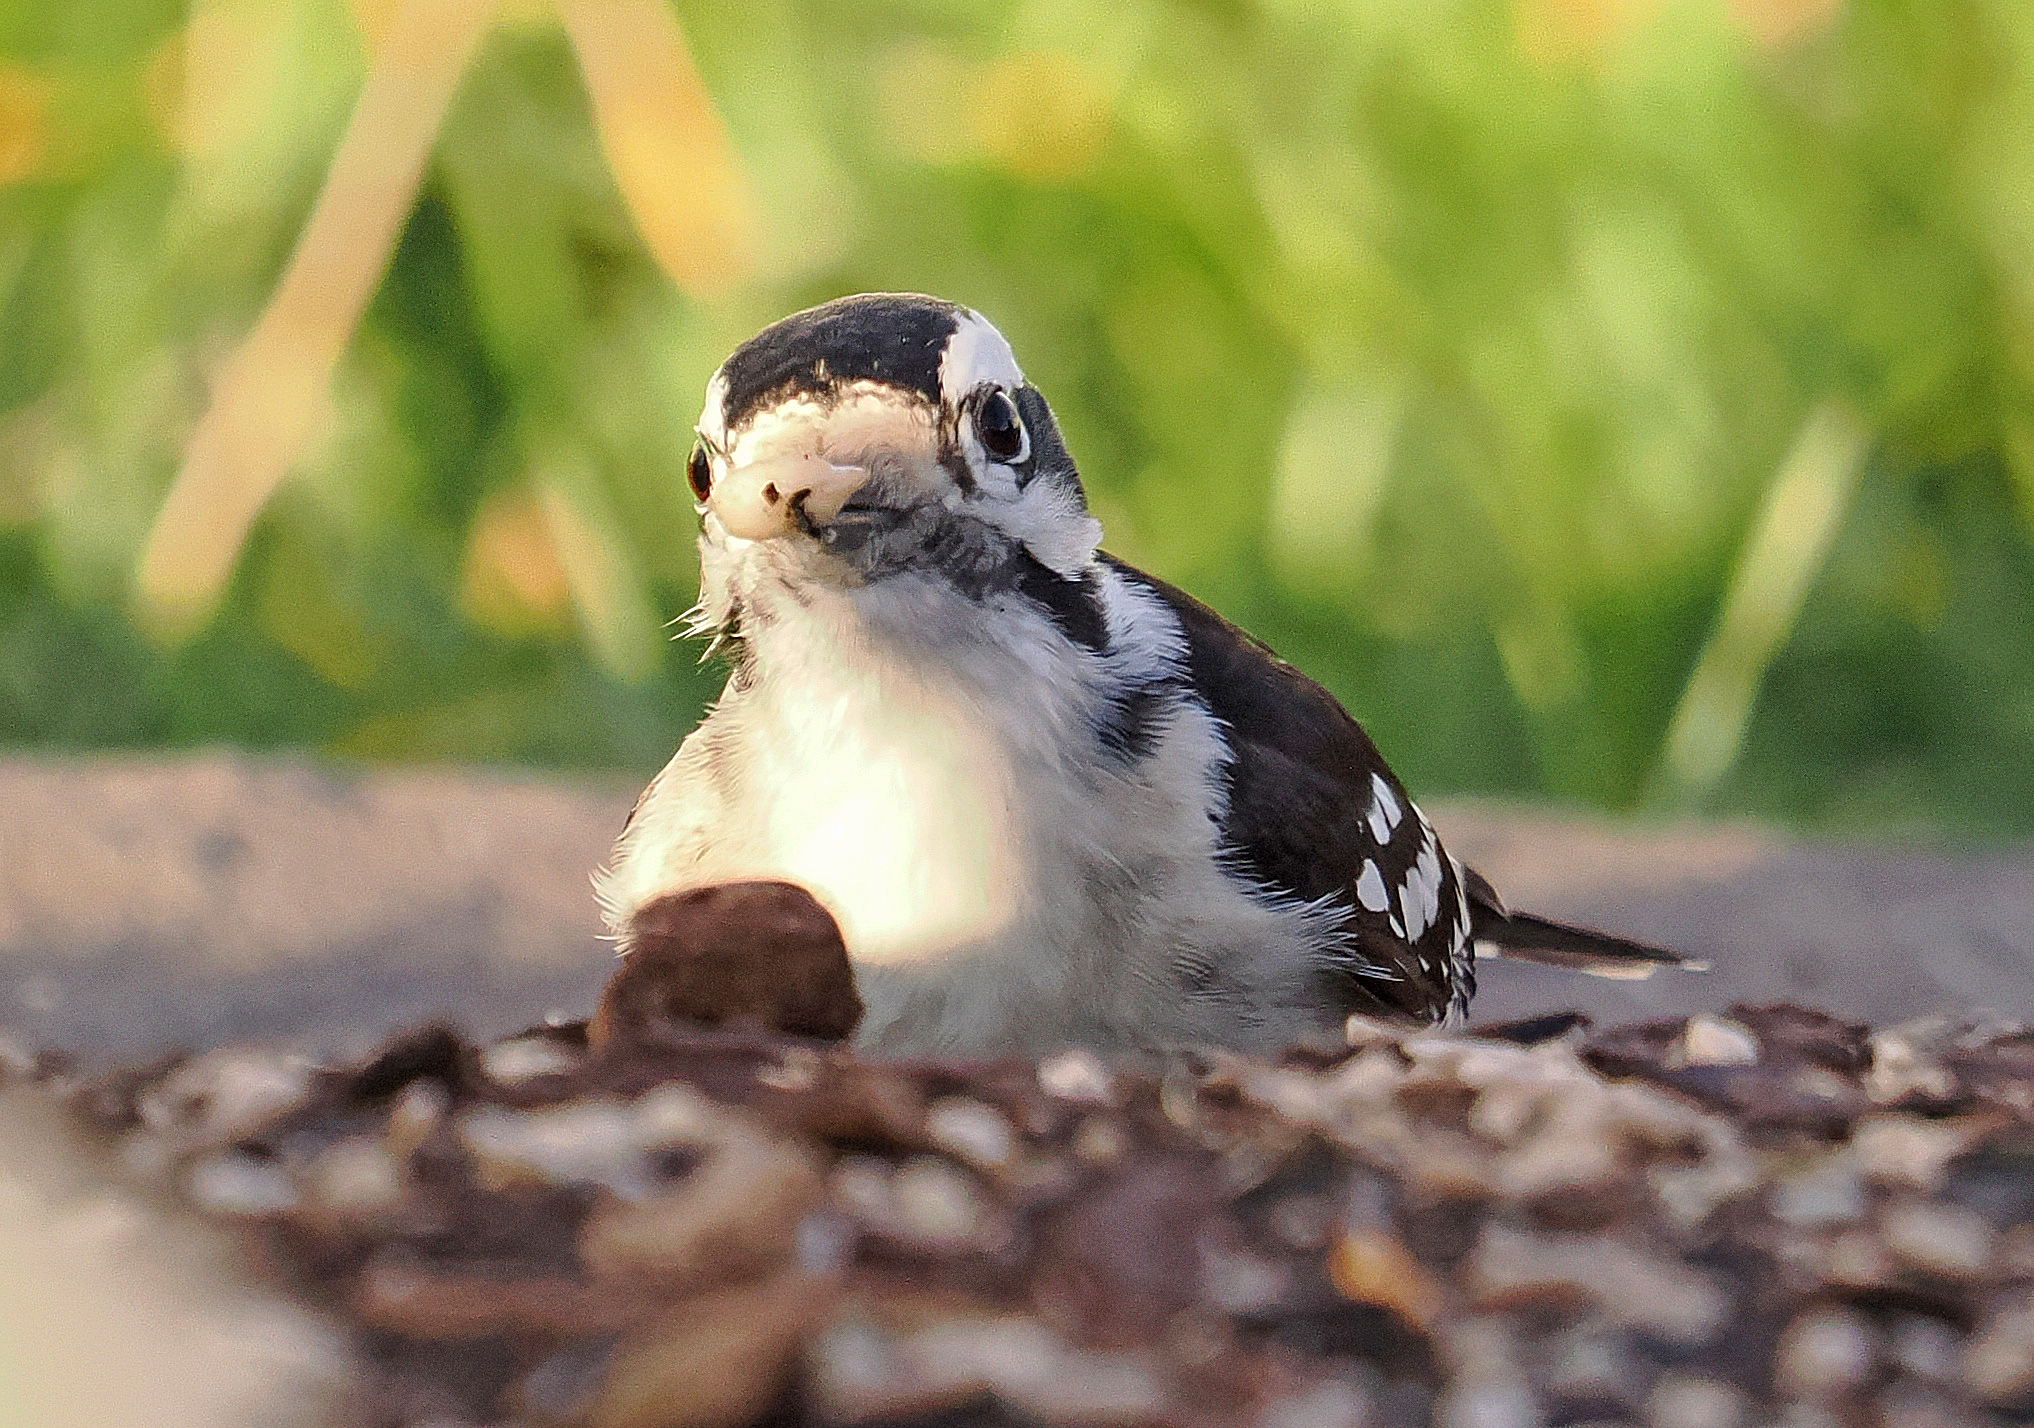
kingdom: Animalia
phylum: Chordata
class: Aves
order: Piciformes
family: Picidae
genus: Dryobates
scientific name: Dryobates pubescens
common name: Downy woodpecker
